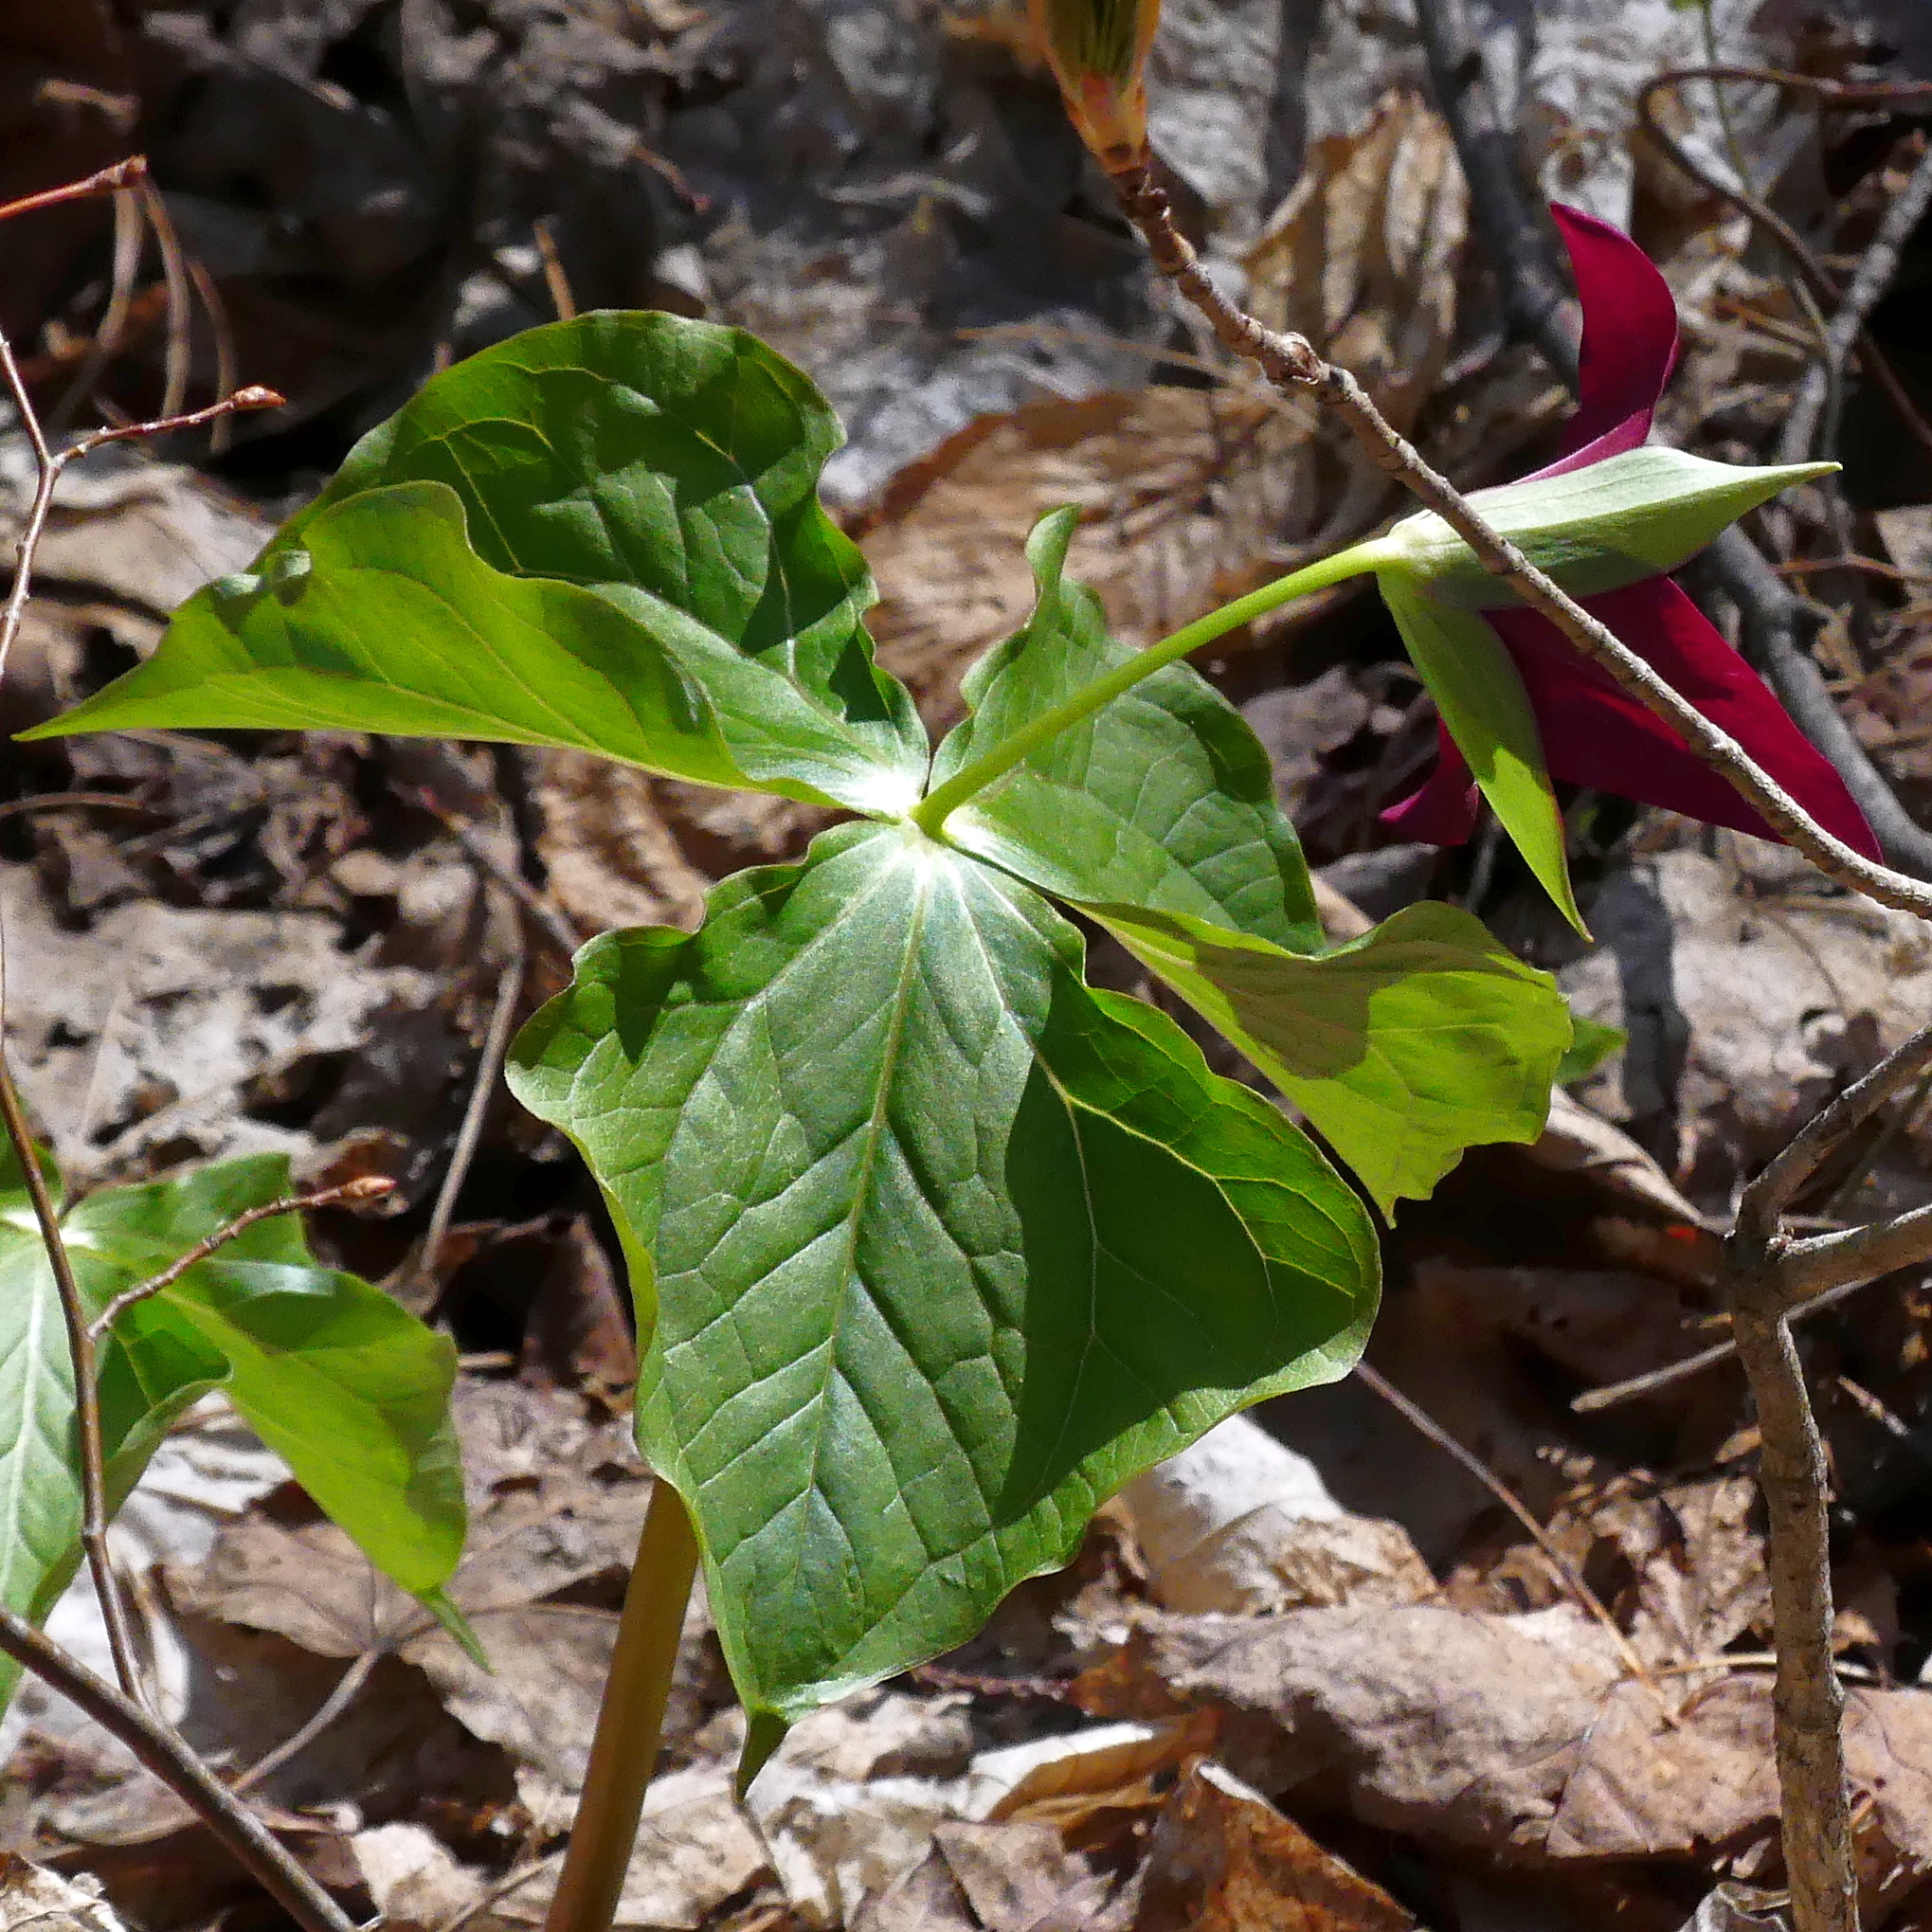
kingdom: Plantae
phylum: Tracheophyta
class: Liliopsida
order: Liliales
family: Melanthiaceae
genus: Trillium
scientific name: Trillium erectum
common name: Purple trillium
